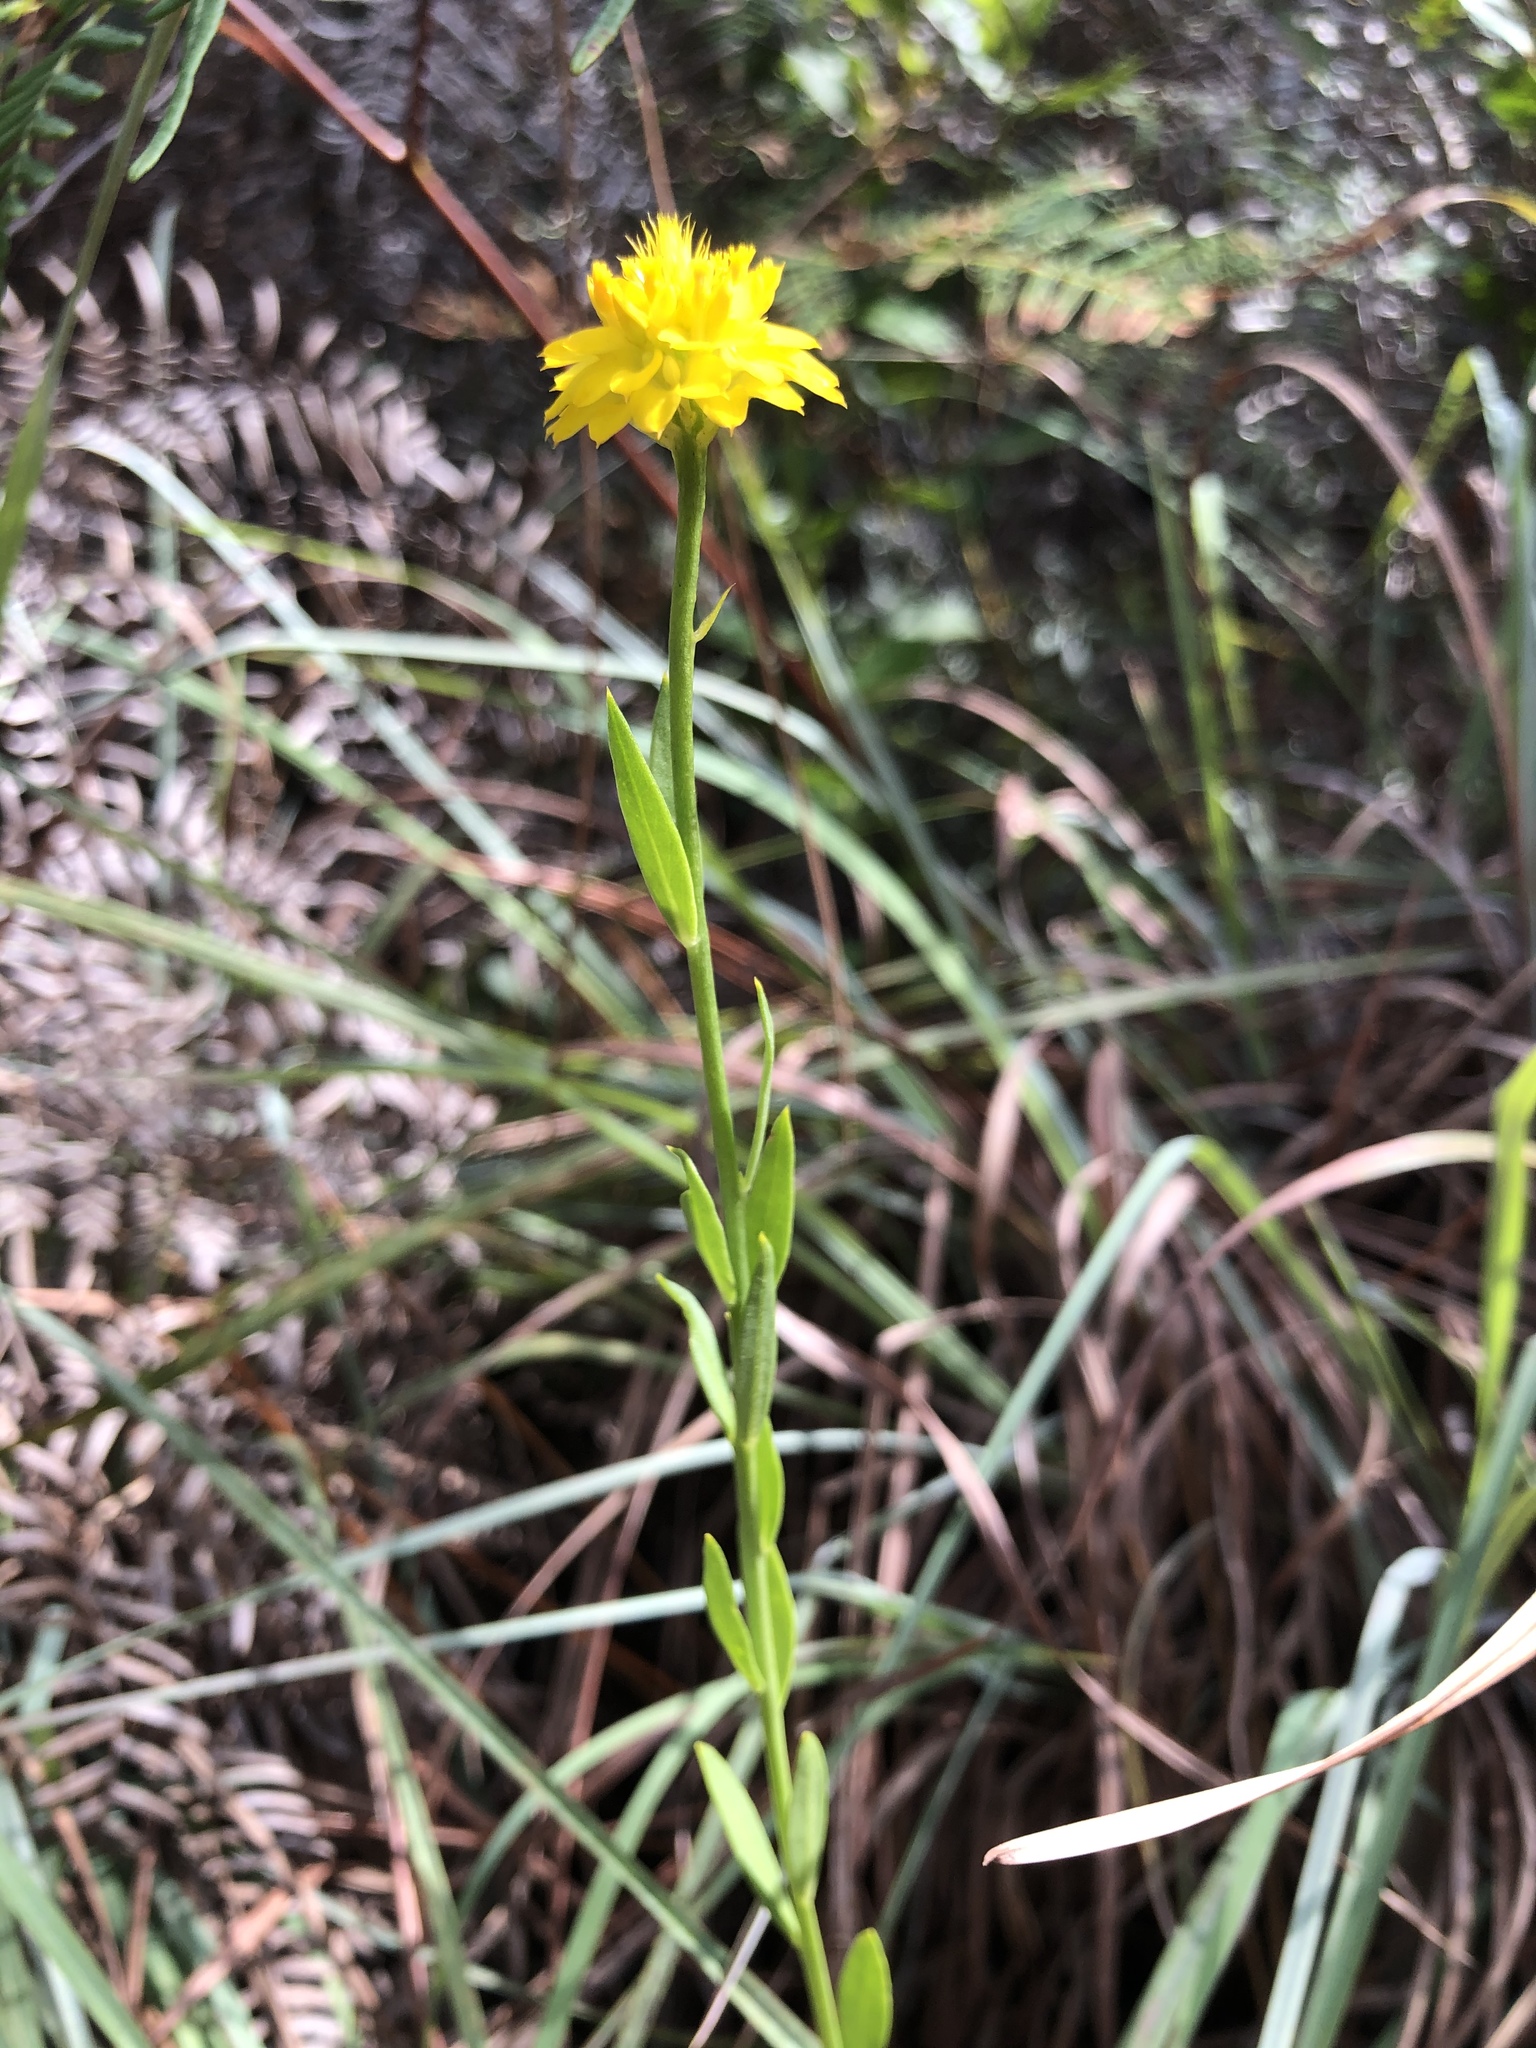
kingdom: Plantae
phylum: Tracheophyta
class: Magnoliopsida
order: Fabales
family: Polygalaceae
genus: Polygala
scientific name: Polygala rugelii
